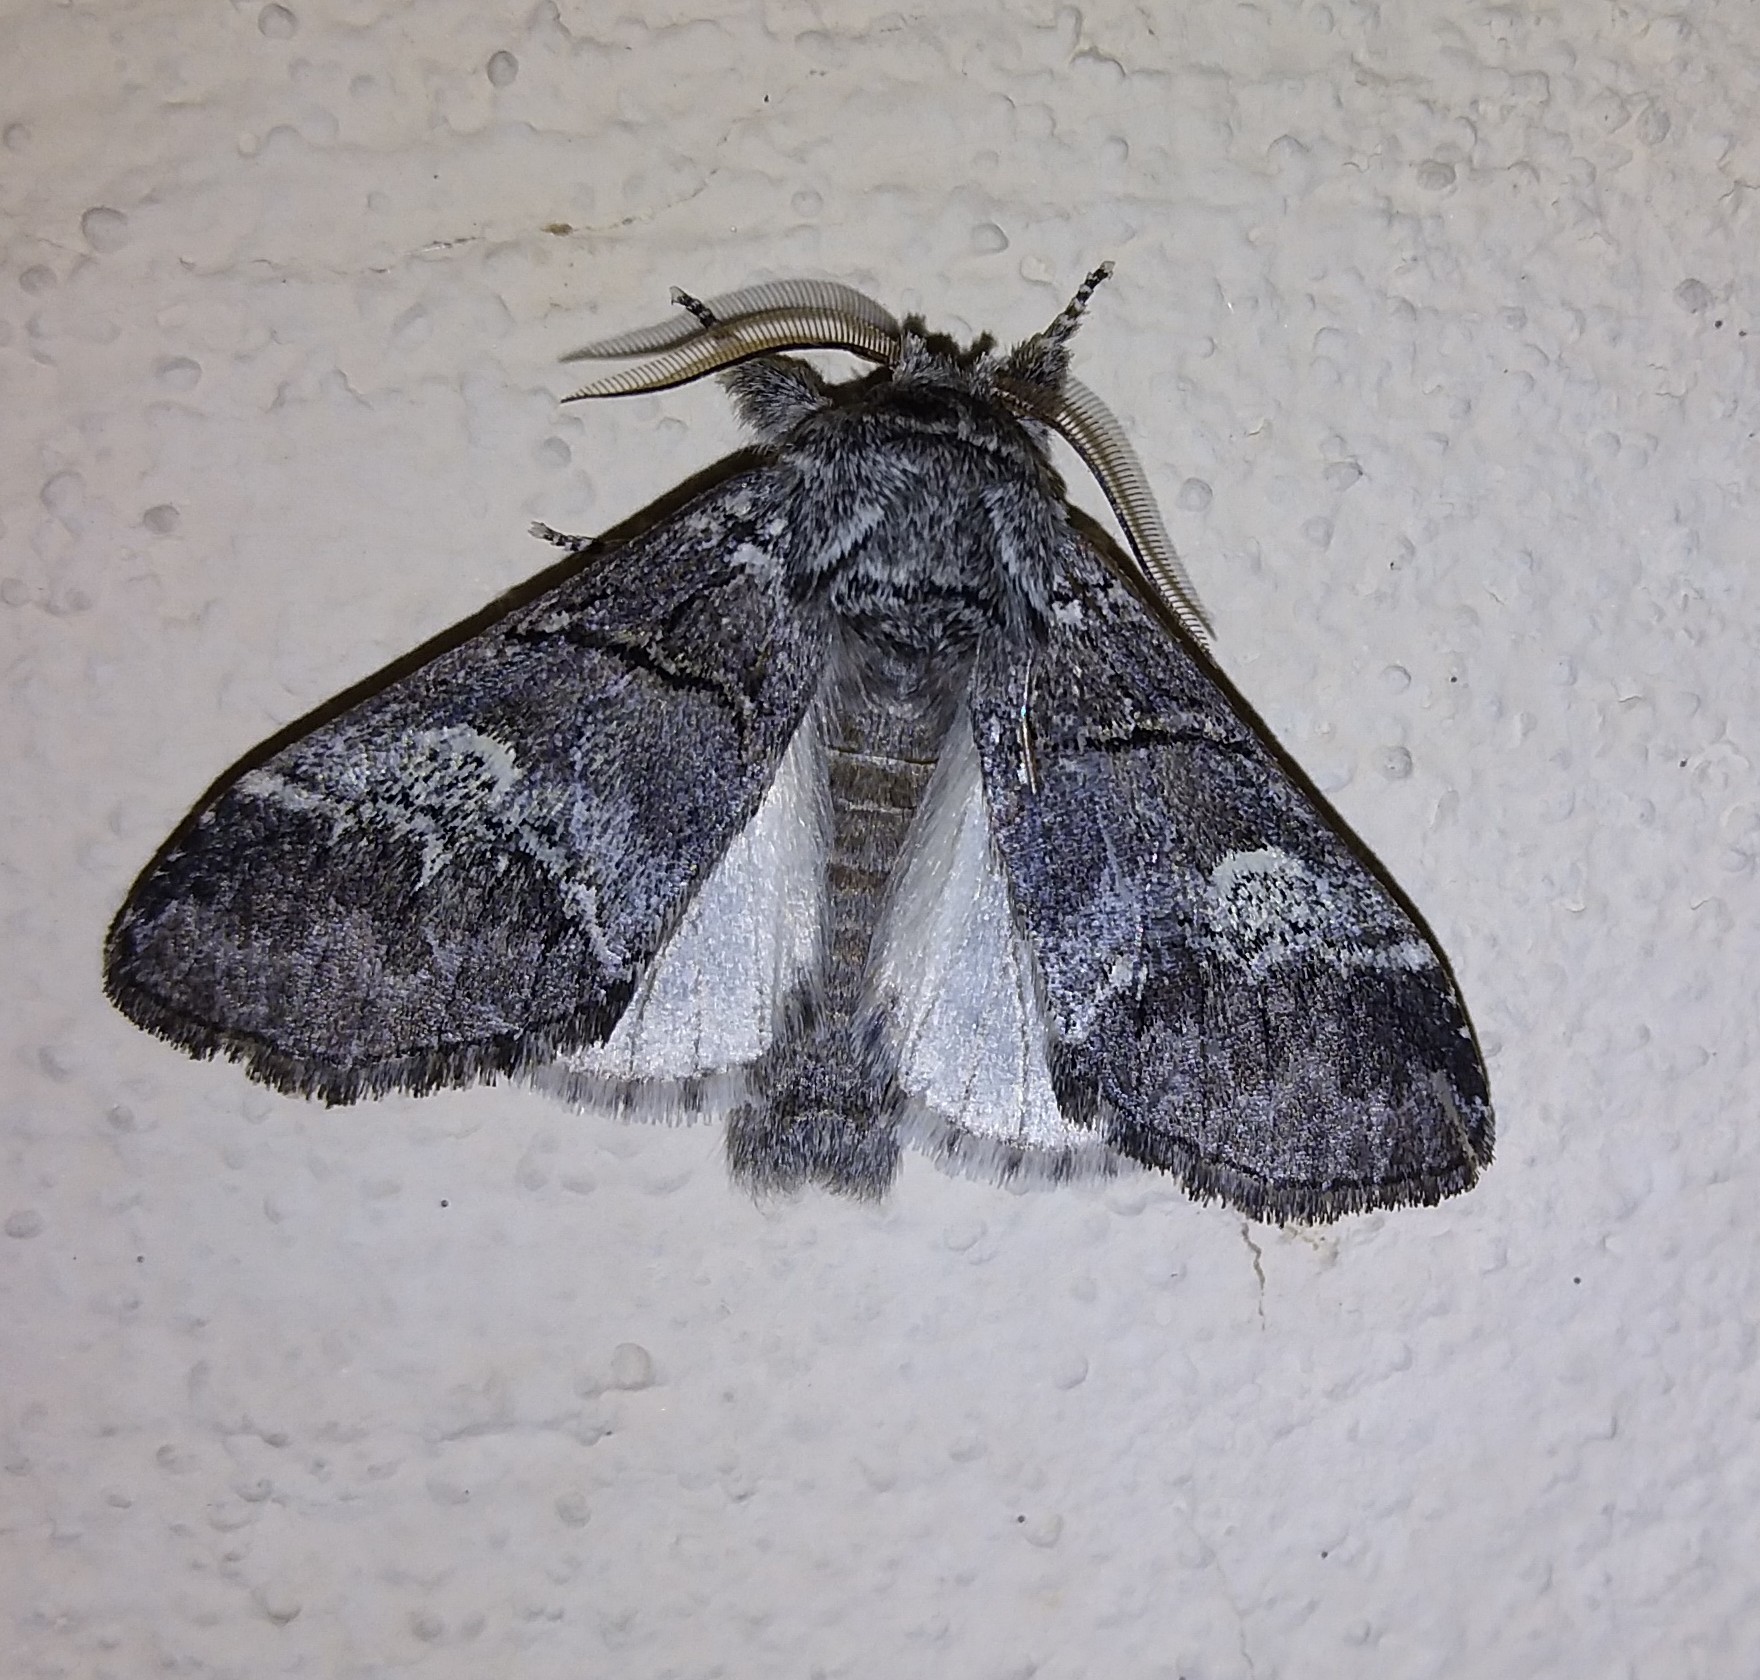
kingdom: Animalia
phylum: Arthropoda
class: Insecta
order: Lepidoptera
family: Notodontidae
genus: Drymonia
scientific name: Drymonia querna
